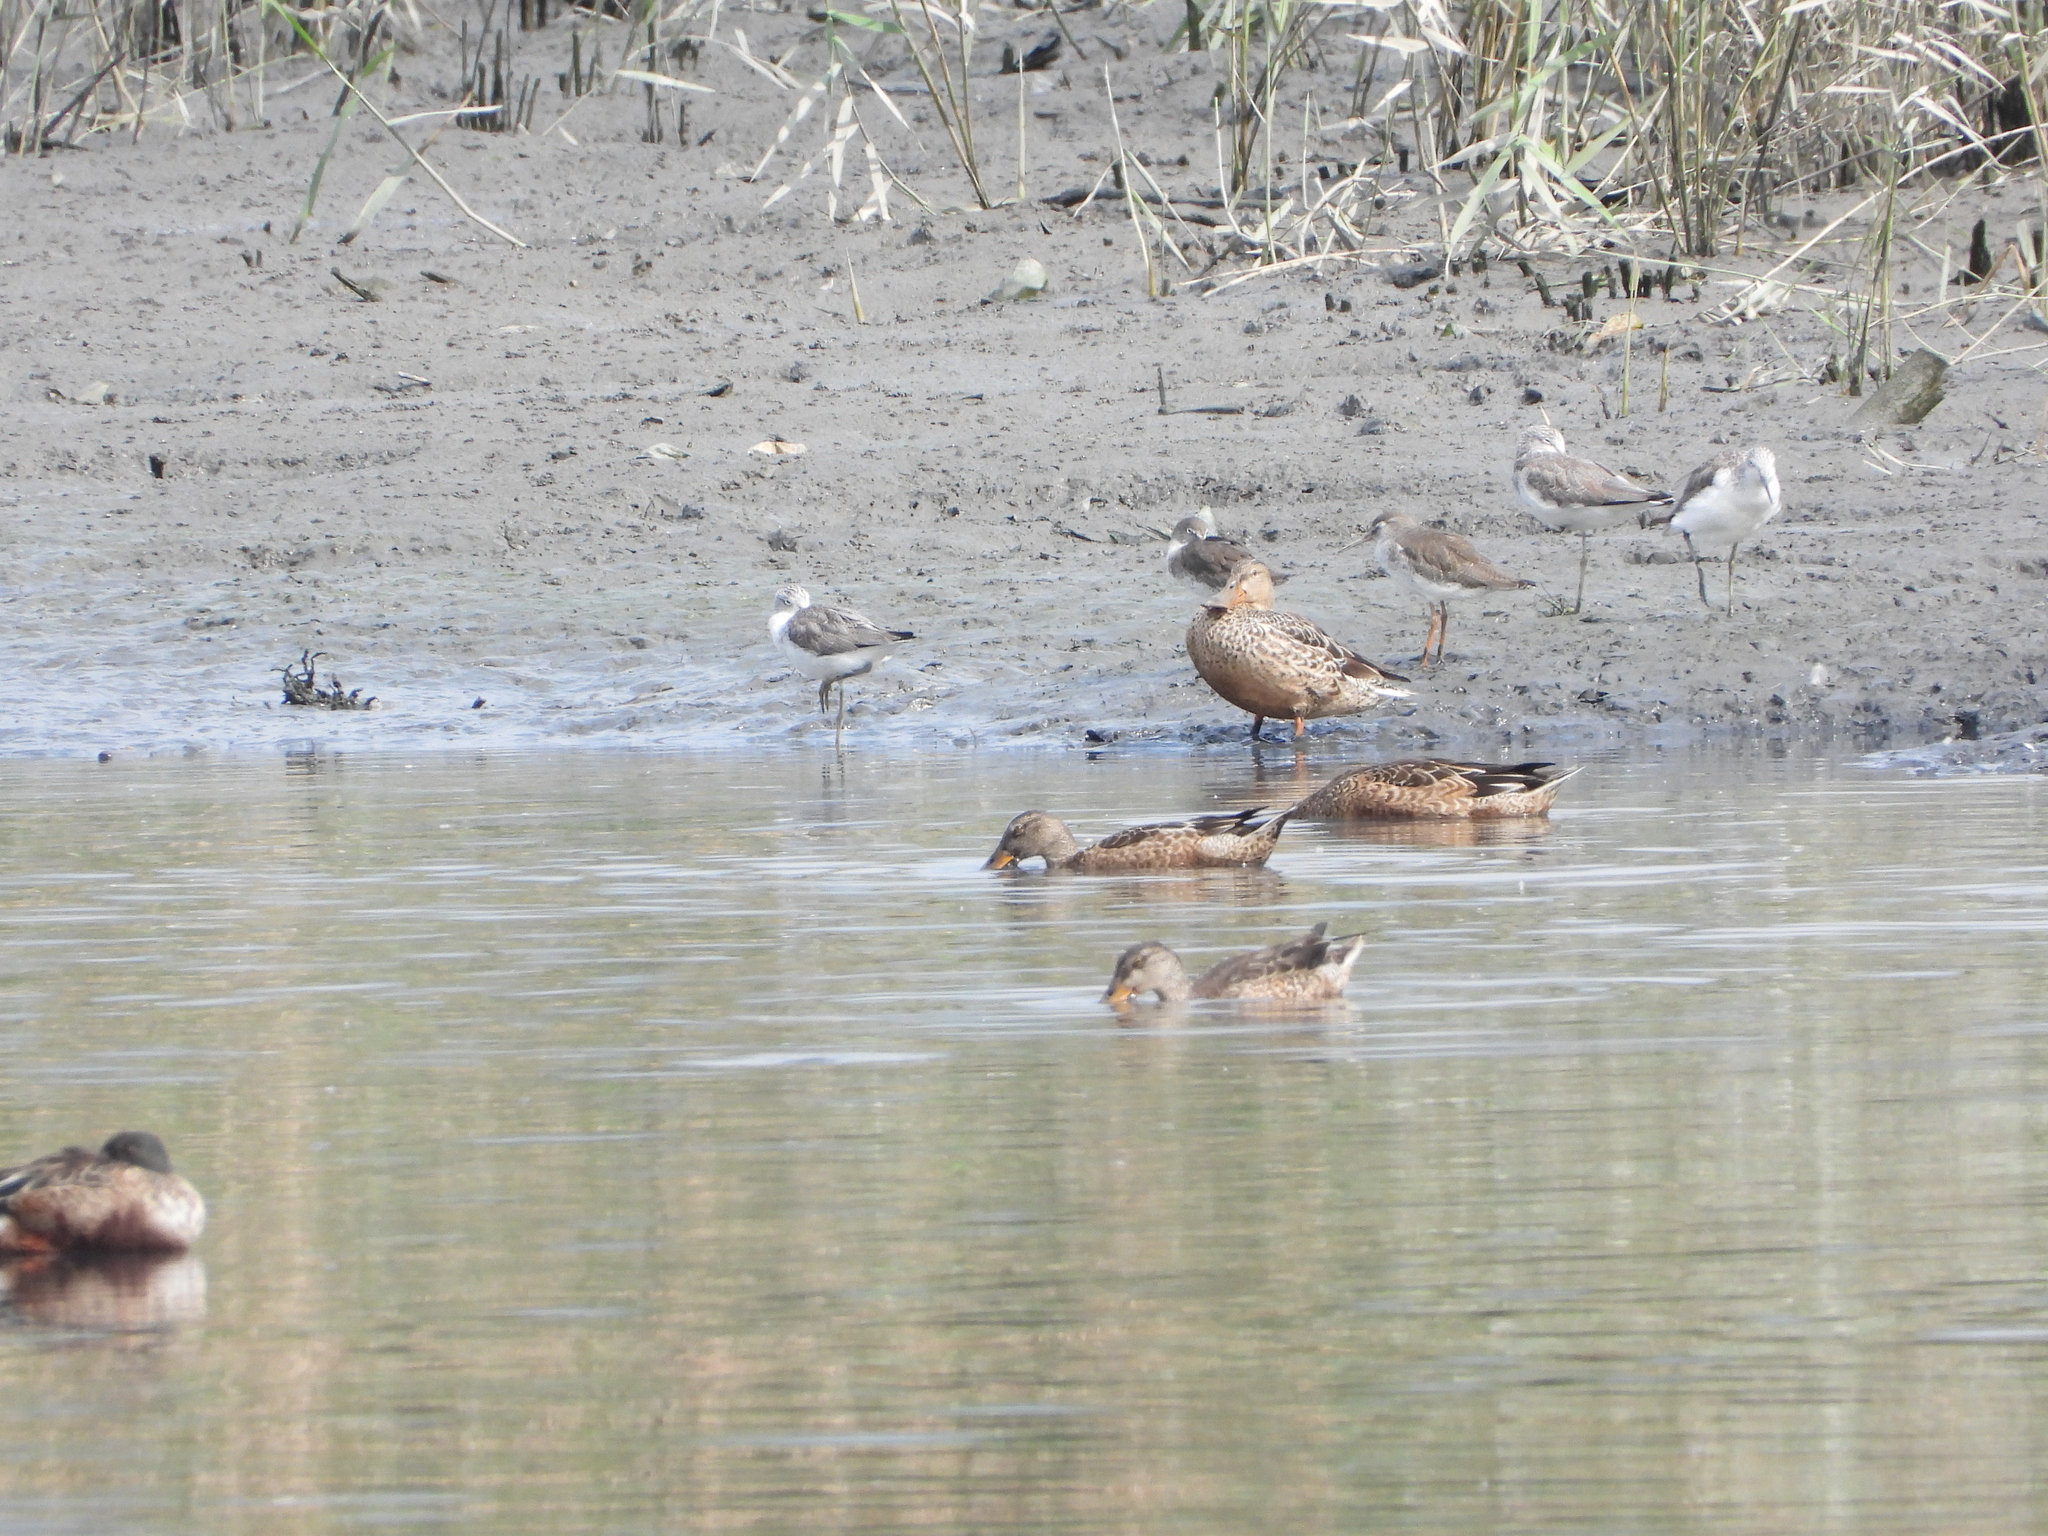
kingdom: Animalia
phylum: Chordata
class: Aves
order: Anseriformes
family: Anatidae
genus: Spatula
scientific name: Spatula clypeata
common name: Northern shoveler
